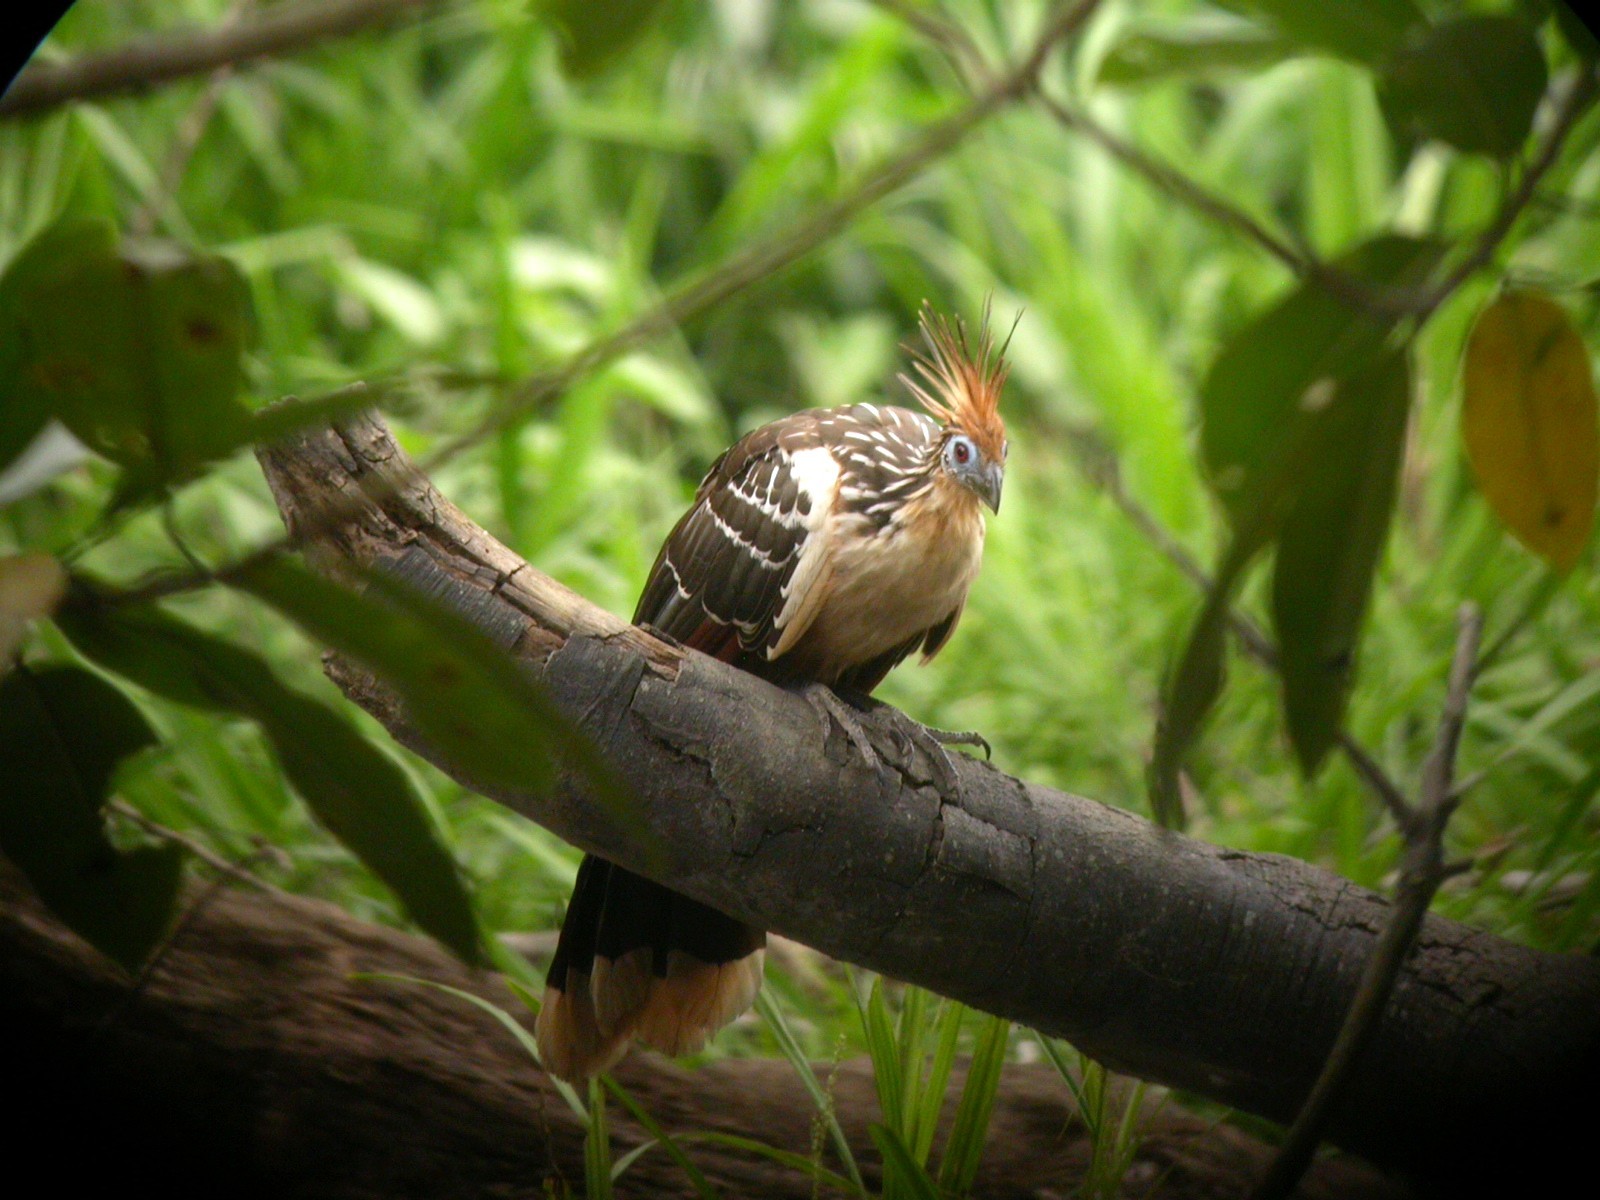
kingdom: Animalia
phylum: Chordata
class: Aves
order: Opisthocomiformes
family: Opisthocomidae
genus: Opisthocomus
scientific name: Opisthocomus hoazin
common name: Hoatzin
